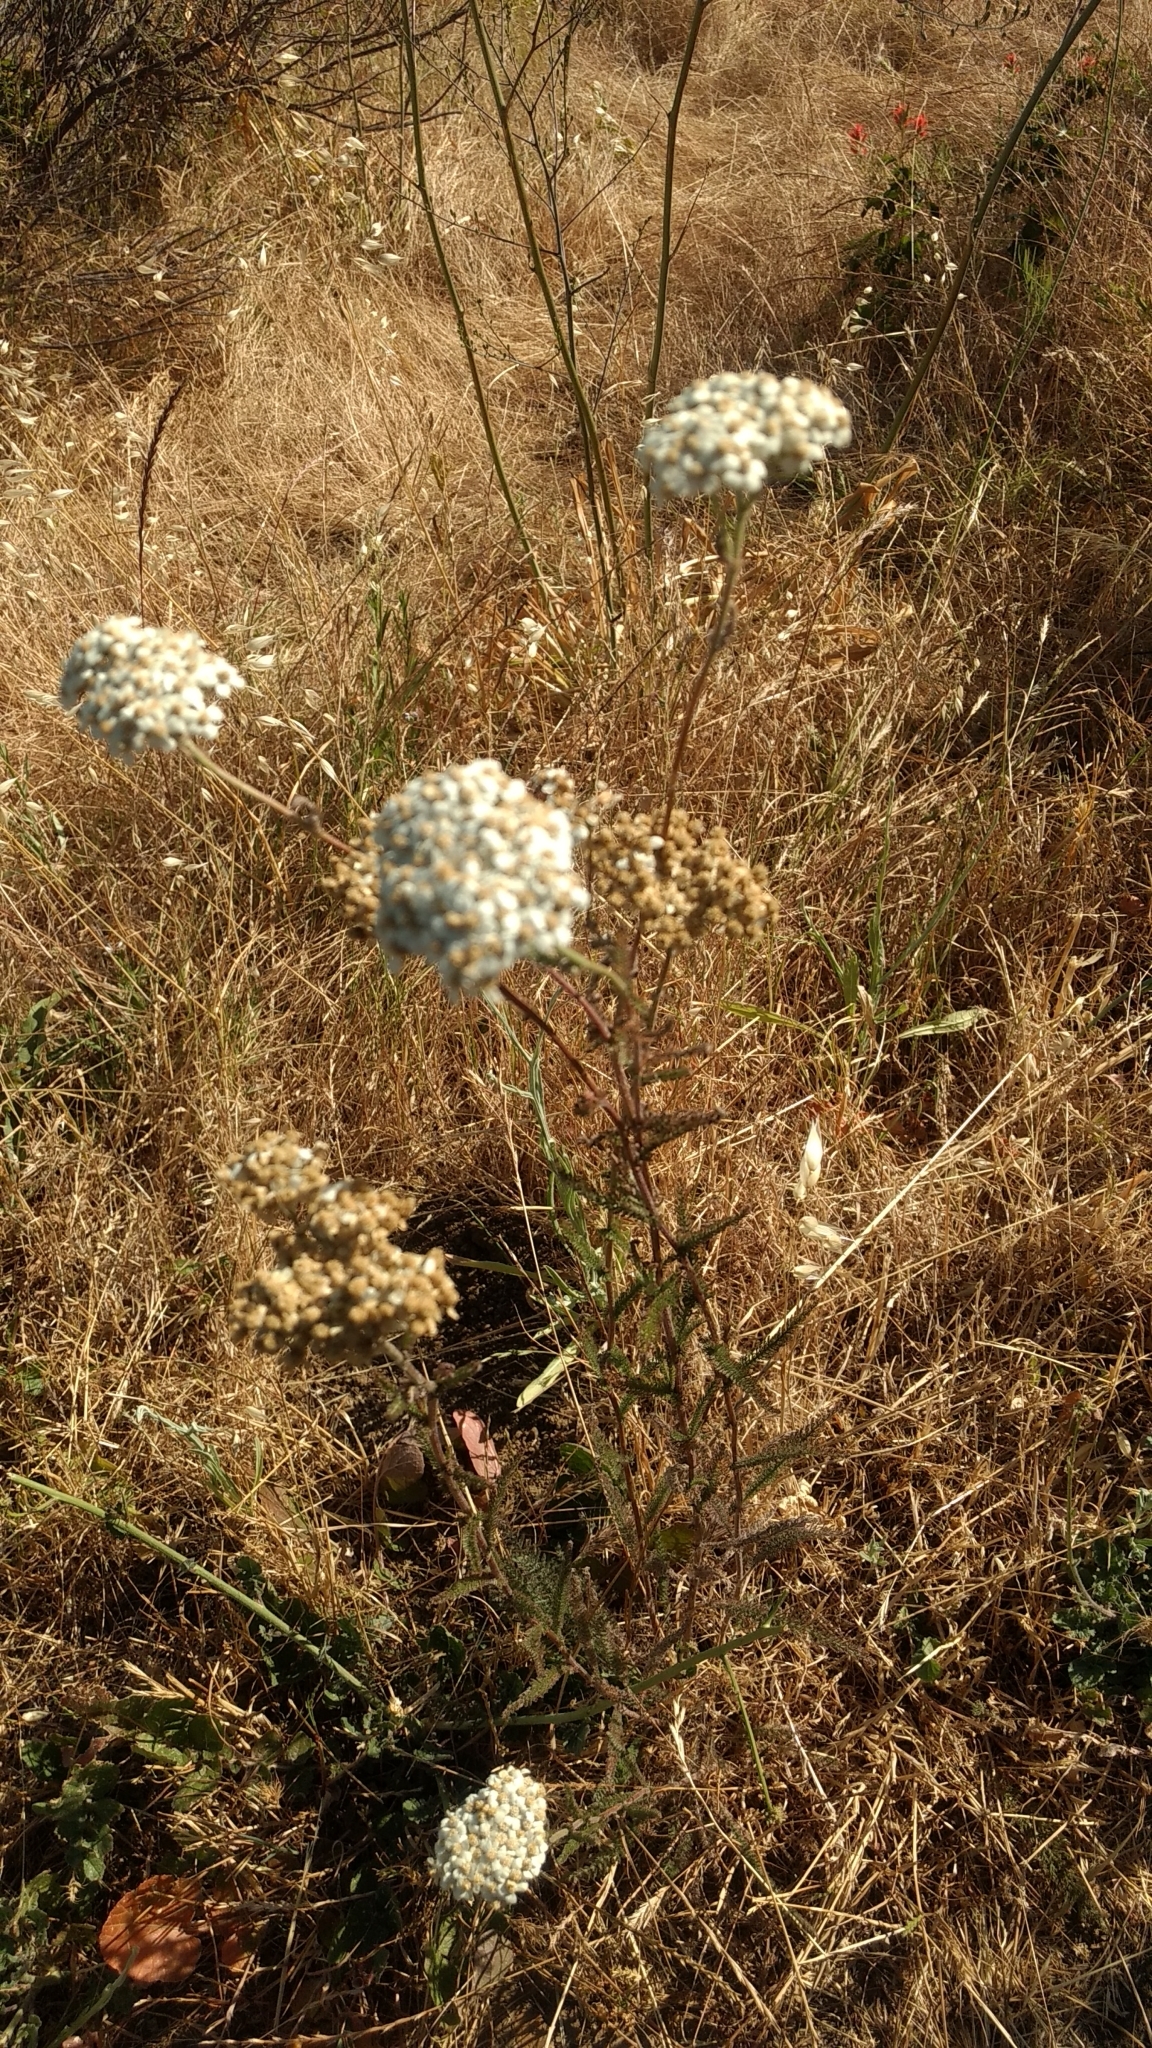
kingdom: Plantae
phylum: Tracheophyta
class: Magnoliopsida
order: Asterales
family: Asteraceae
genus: Achillea
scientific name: Achillea millefolium
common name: Yarrow
